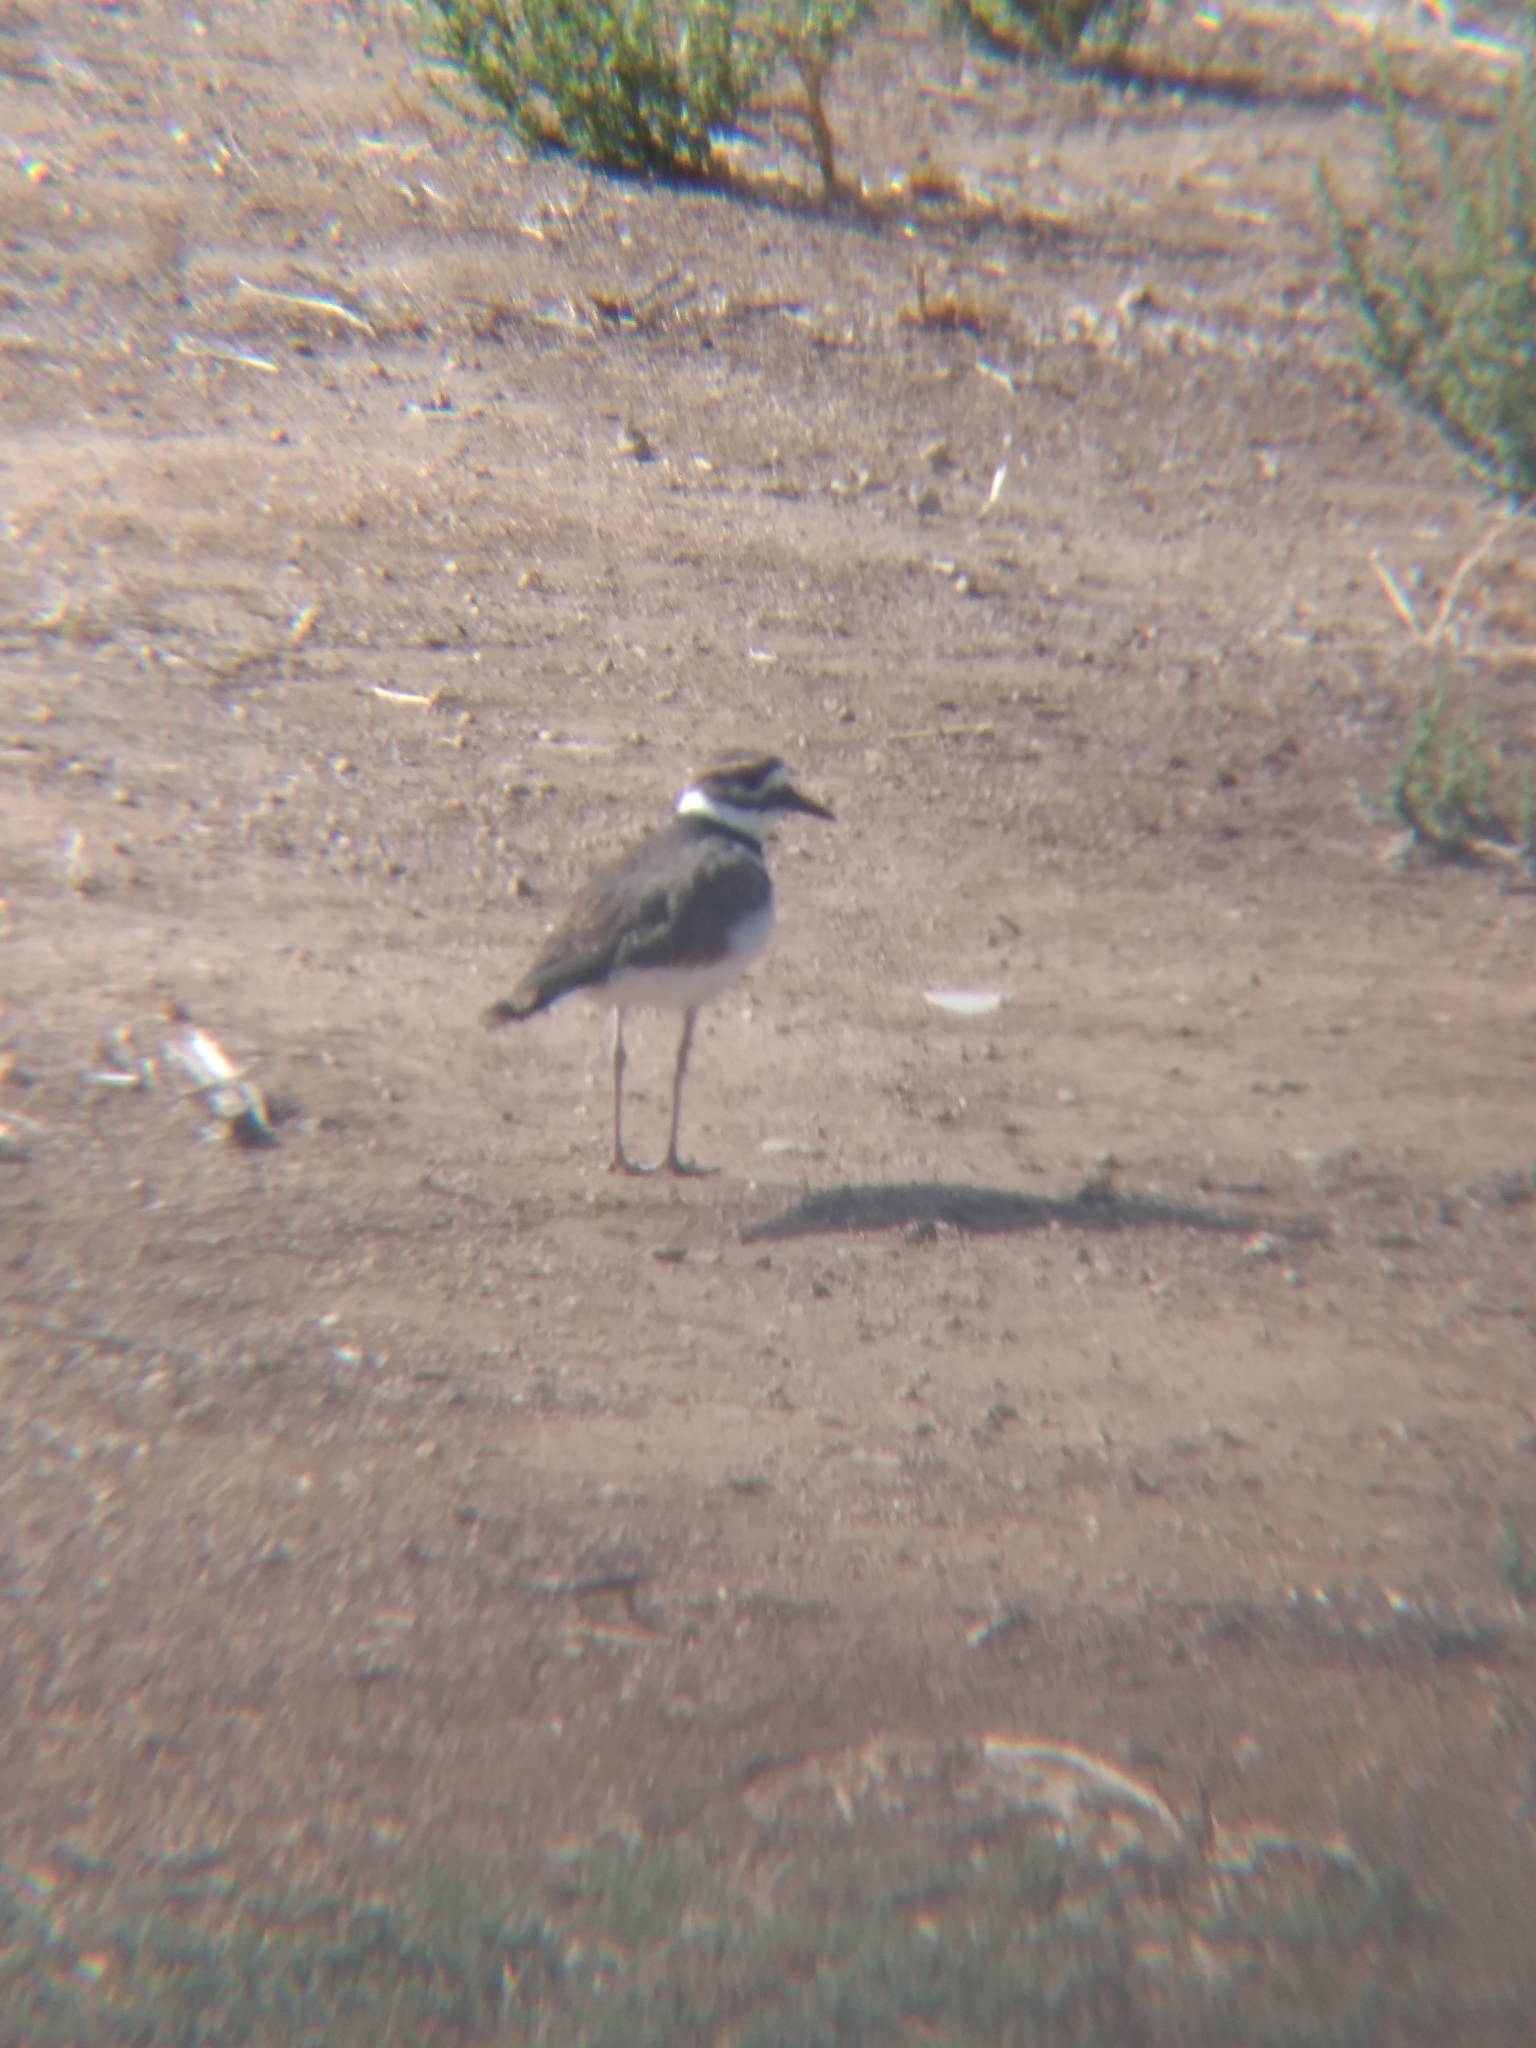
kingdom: Animalia
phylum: Chordata
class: Aves
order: Charadriiformes
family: Charadriidae
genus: Charadrius
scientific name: Charadrius vociferus
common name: Killdeer
